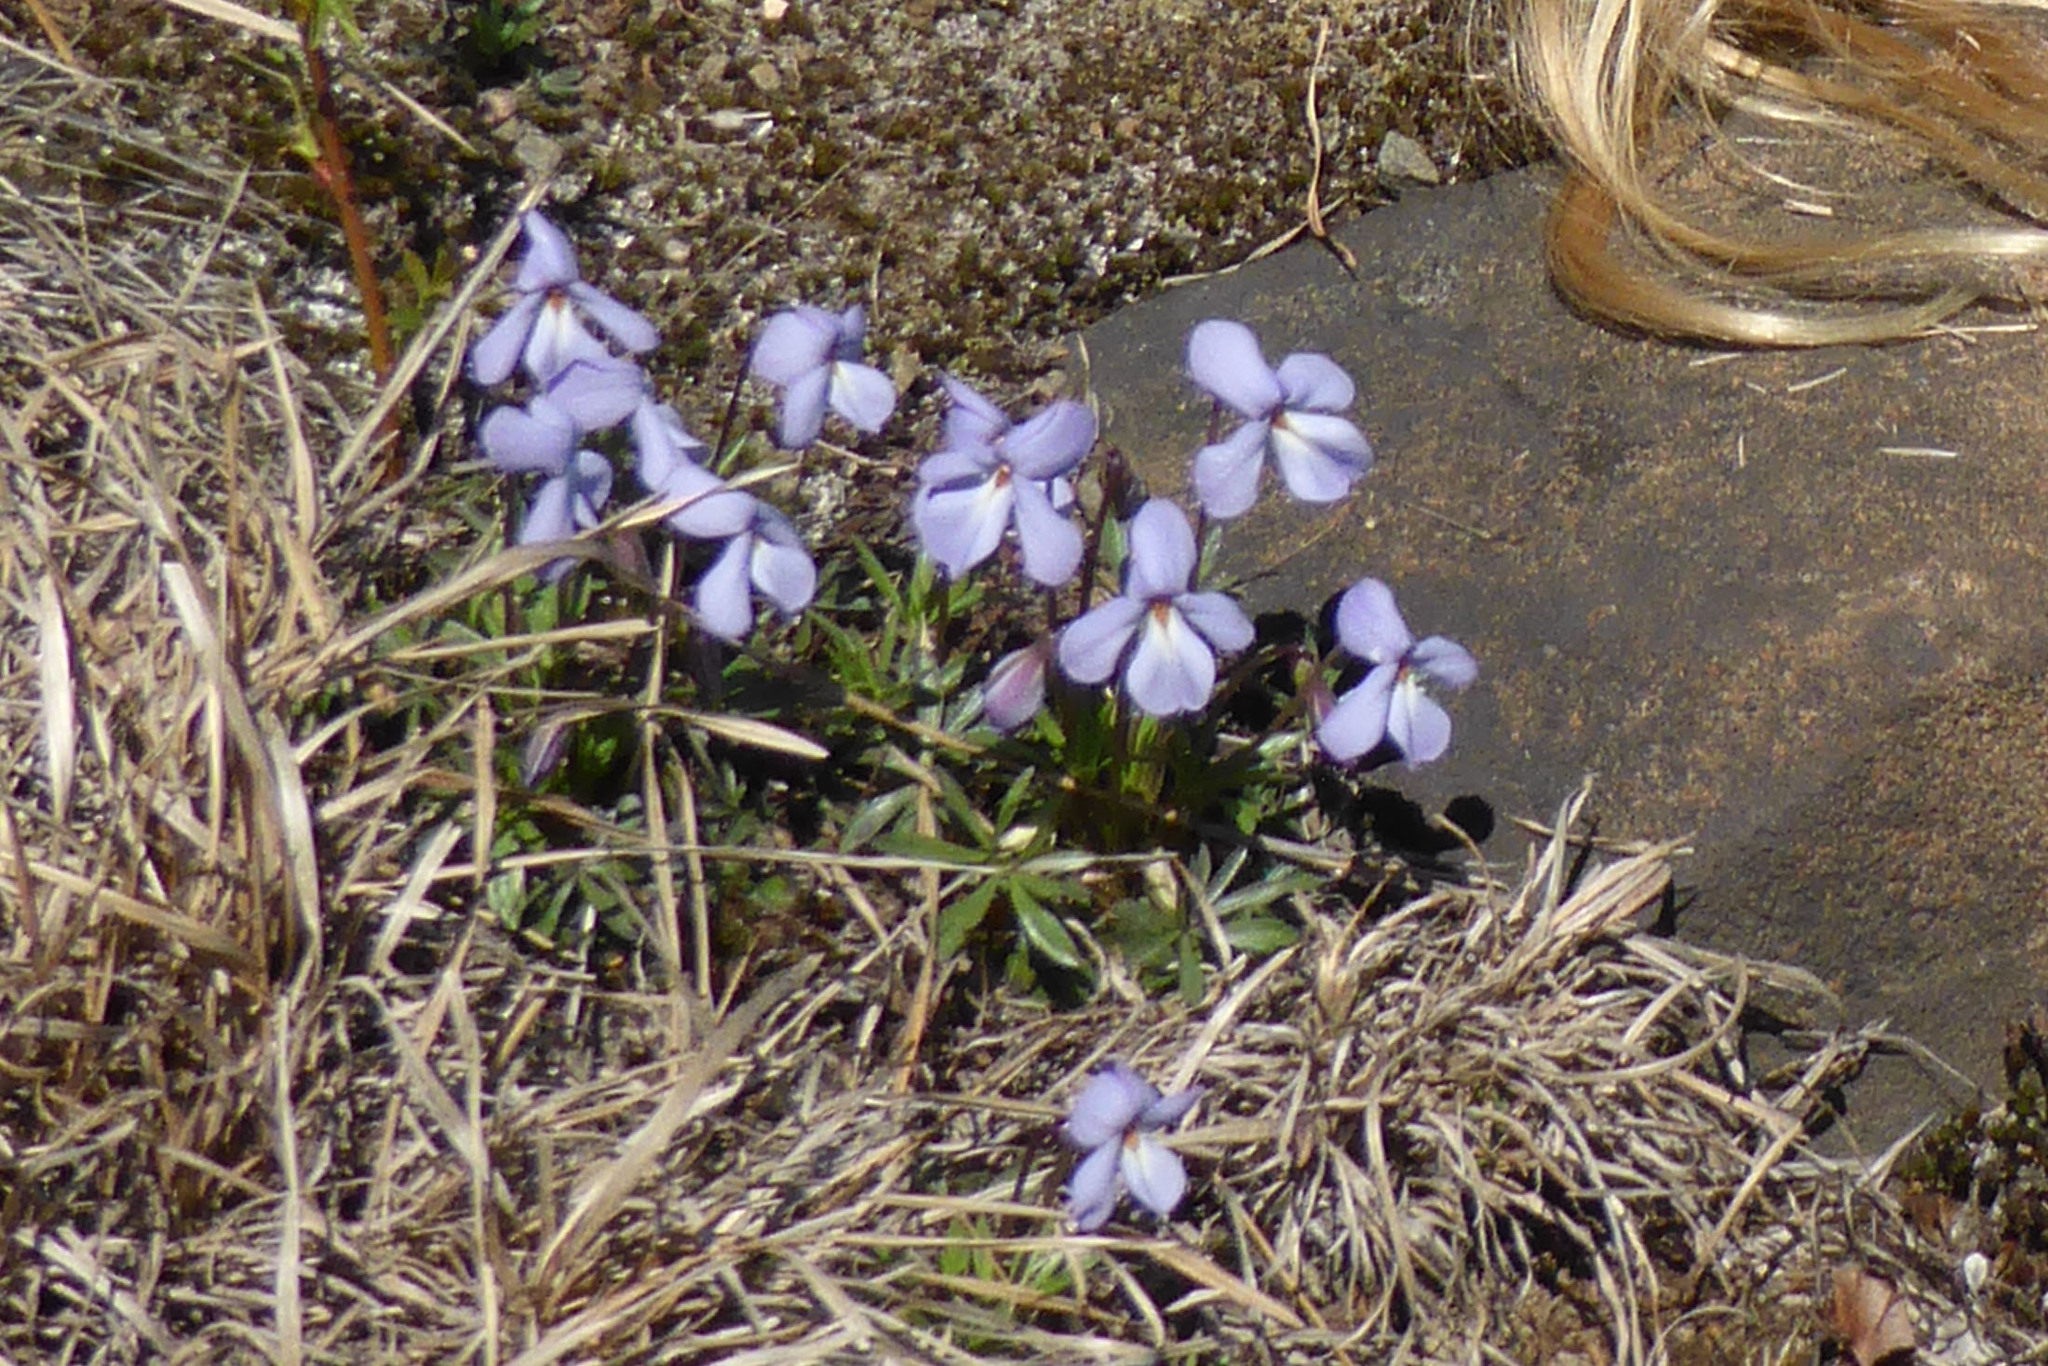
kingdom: Plantae
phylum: Tracheophyta
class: Magnoliopsida
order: Malpighiales
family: Violaceae
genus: Viola
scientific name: Viola pedata
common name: Pansy violet
